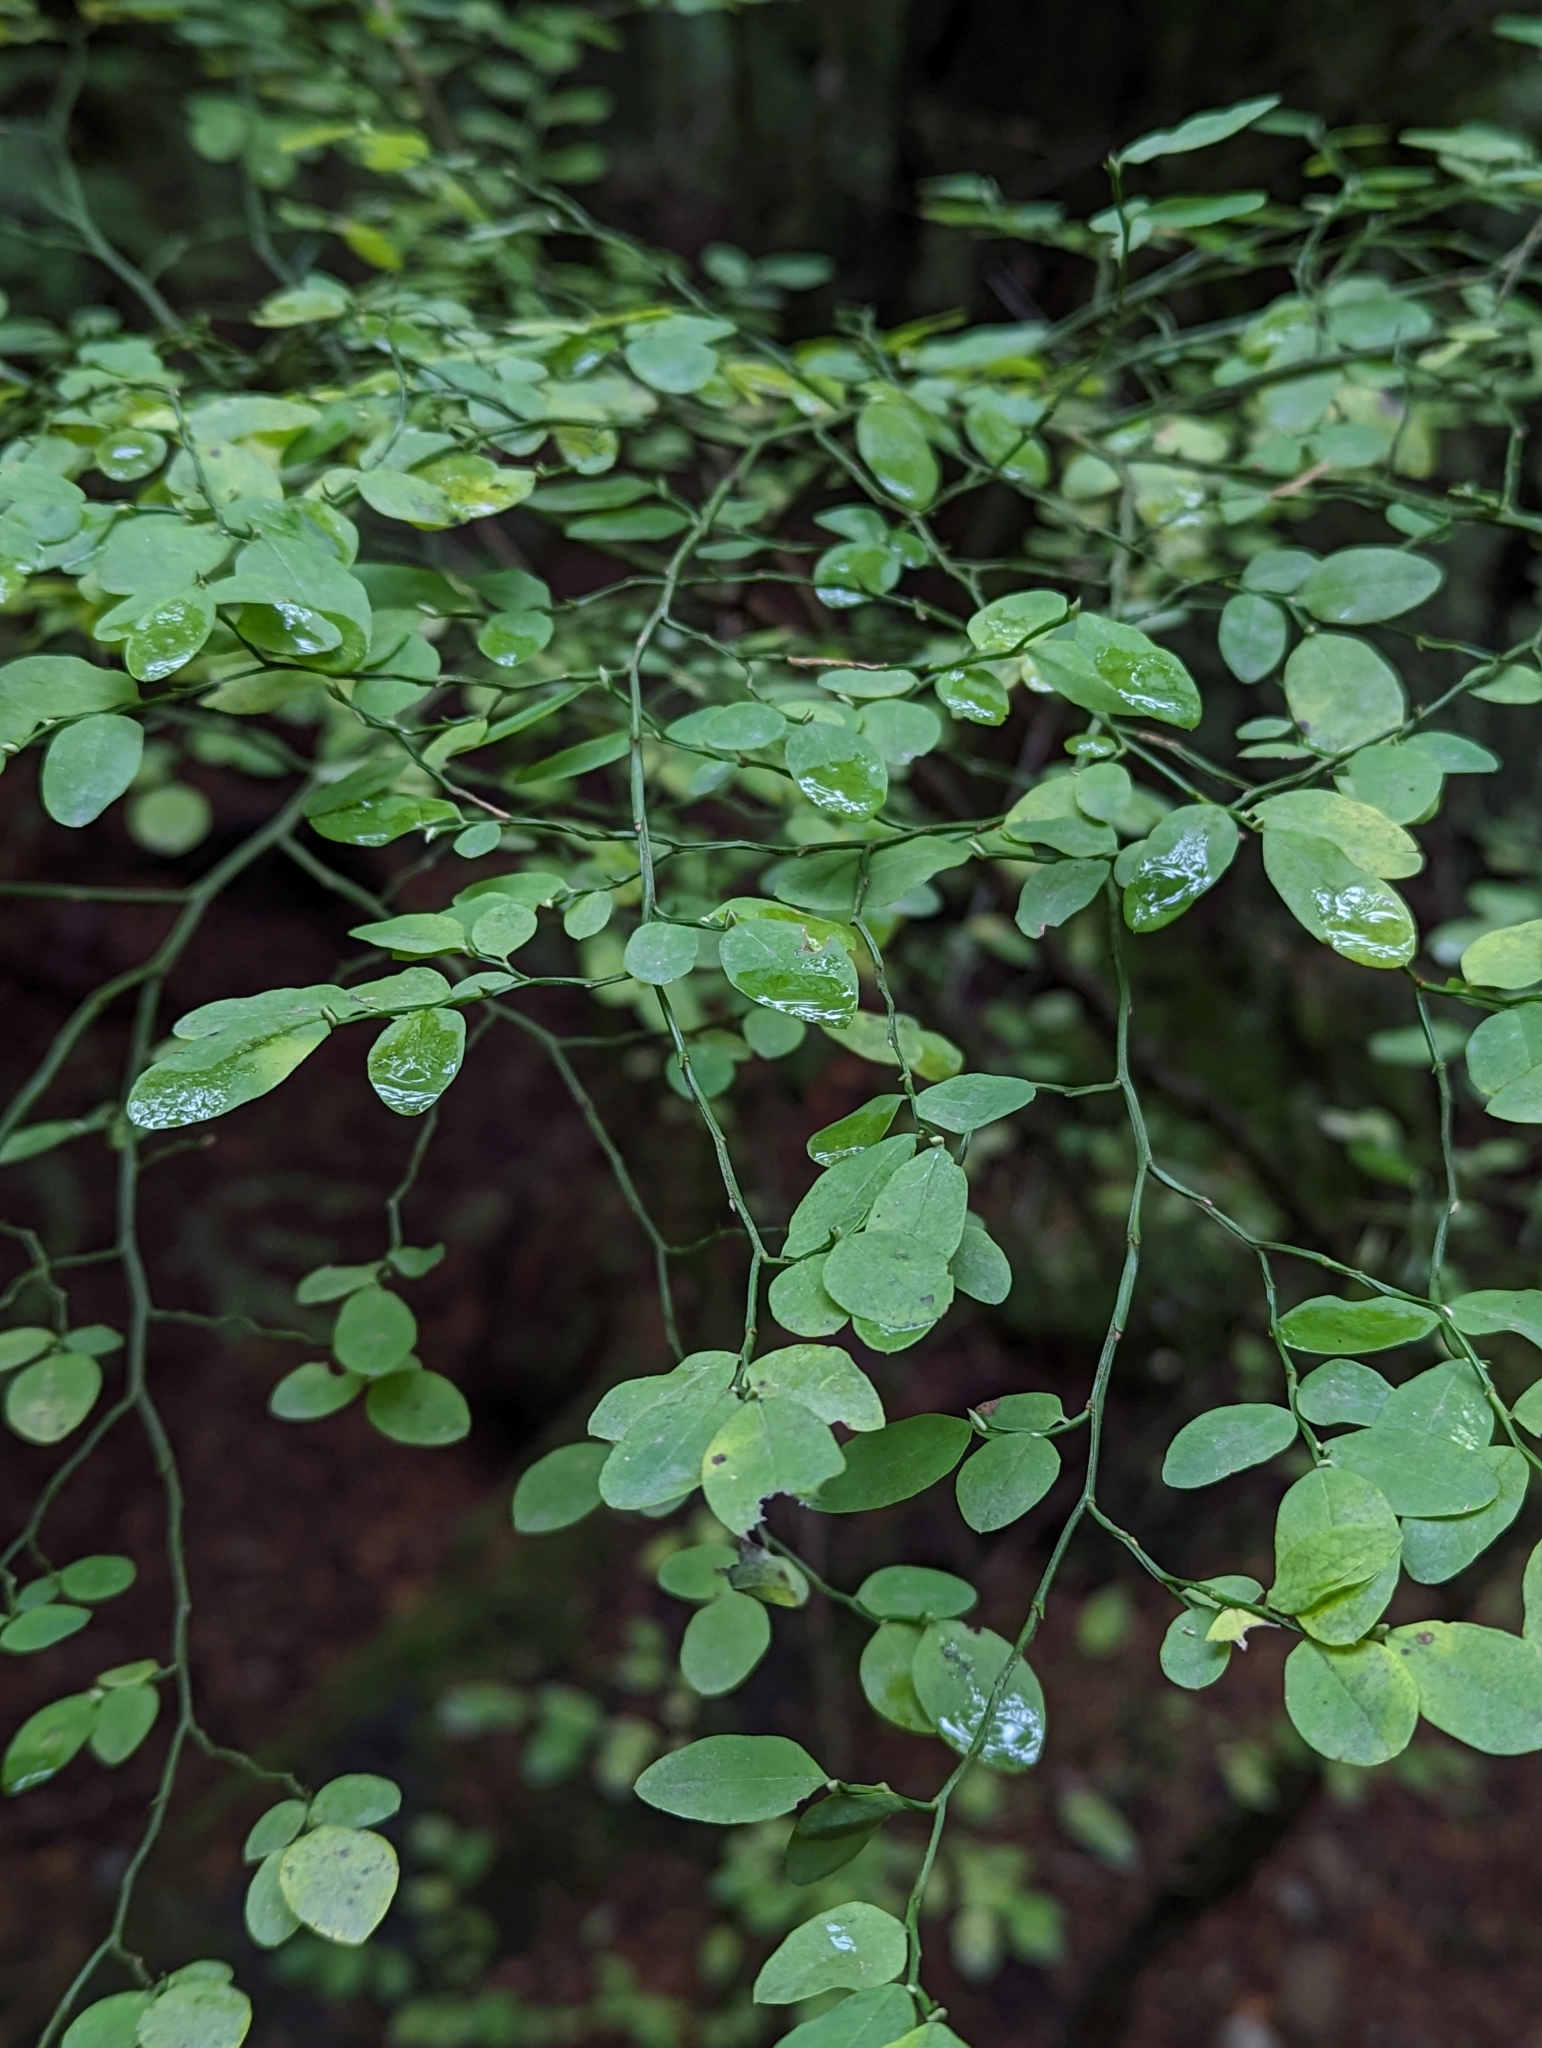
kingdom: Plantae
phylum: Tracheophyta
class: Magnoliopsida
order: Ericales
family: Ericaceae
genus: Vaccinium
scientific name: Vaccinium parvifolium
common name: Red-huckleberry
